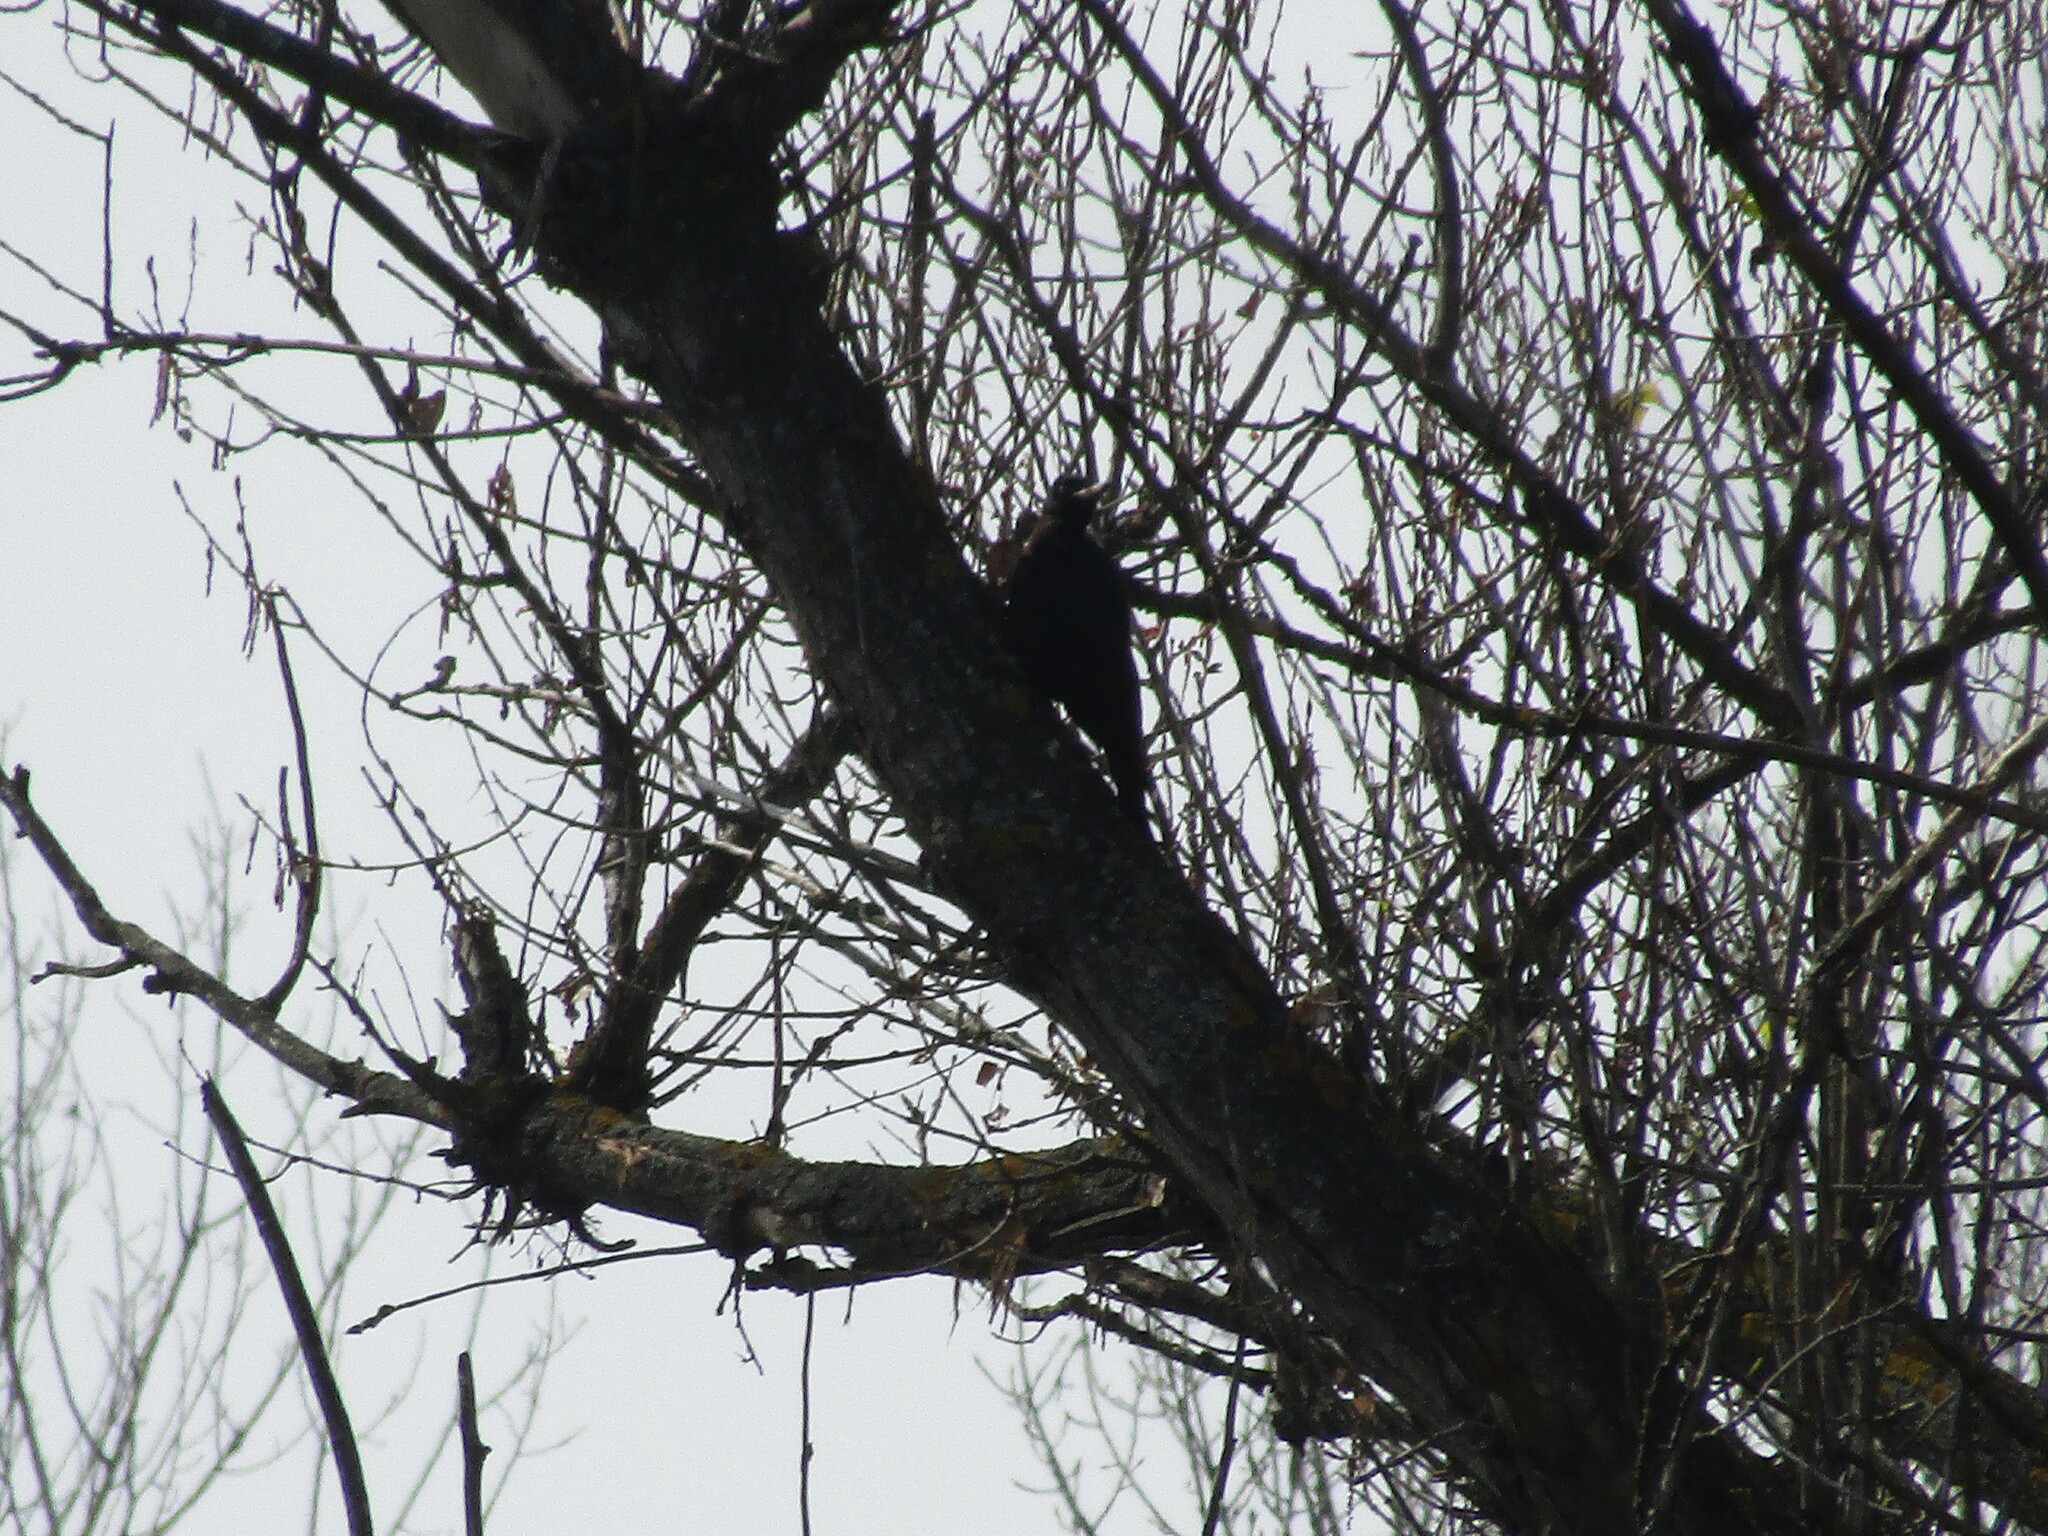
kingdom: Animalia
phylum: Chordata
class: Aves
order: Piciformes
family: Picidae
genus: Dryocopus
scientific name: Dryocopus martius
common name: Black woodpecker
